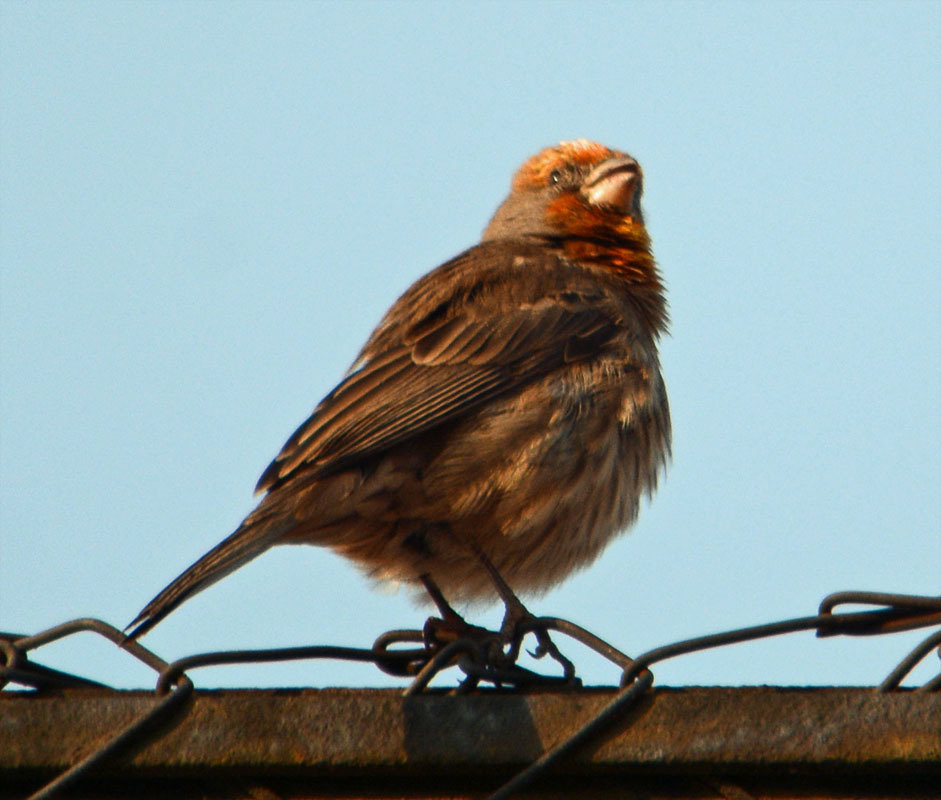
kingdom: Animalia
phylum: Chordata
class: Aves
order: Passeriformes
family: Fringillidae
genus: Haemorhous
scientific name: Haemorhous mexicanus
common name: House finch
